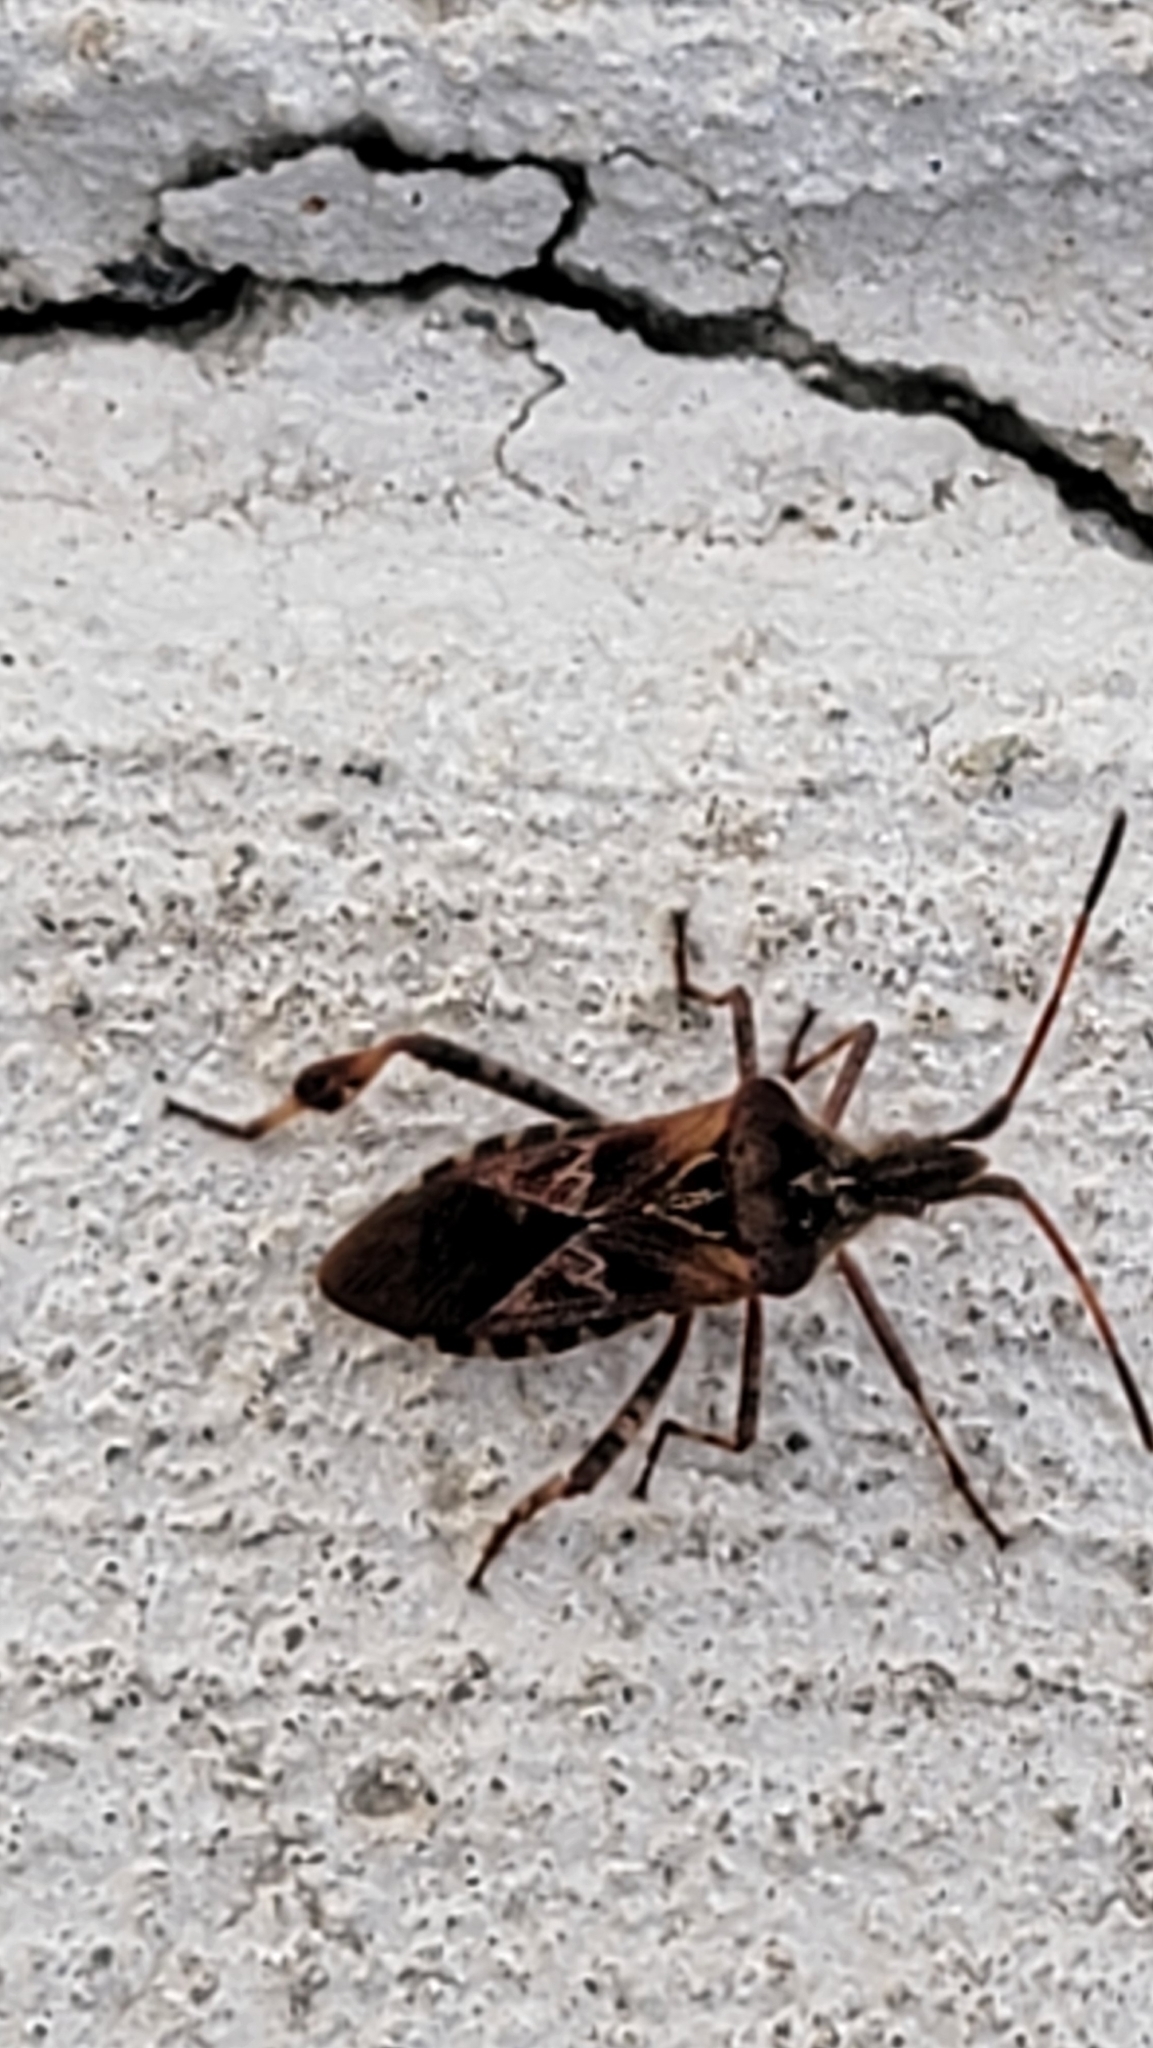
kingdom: Animalia
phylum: Arthropoda
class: Insecta
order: Hemiptera
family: Coreidae
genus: Leptoglossus
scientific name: Leptoglossus occidentalis
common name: Western conifer-seed bug
